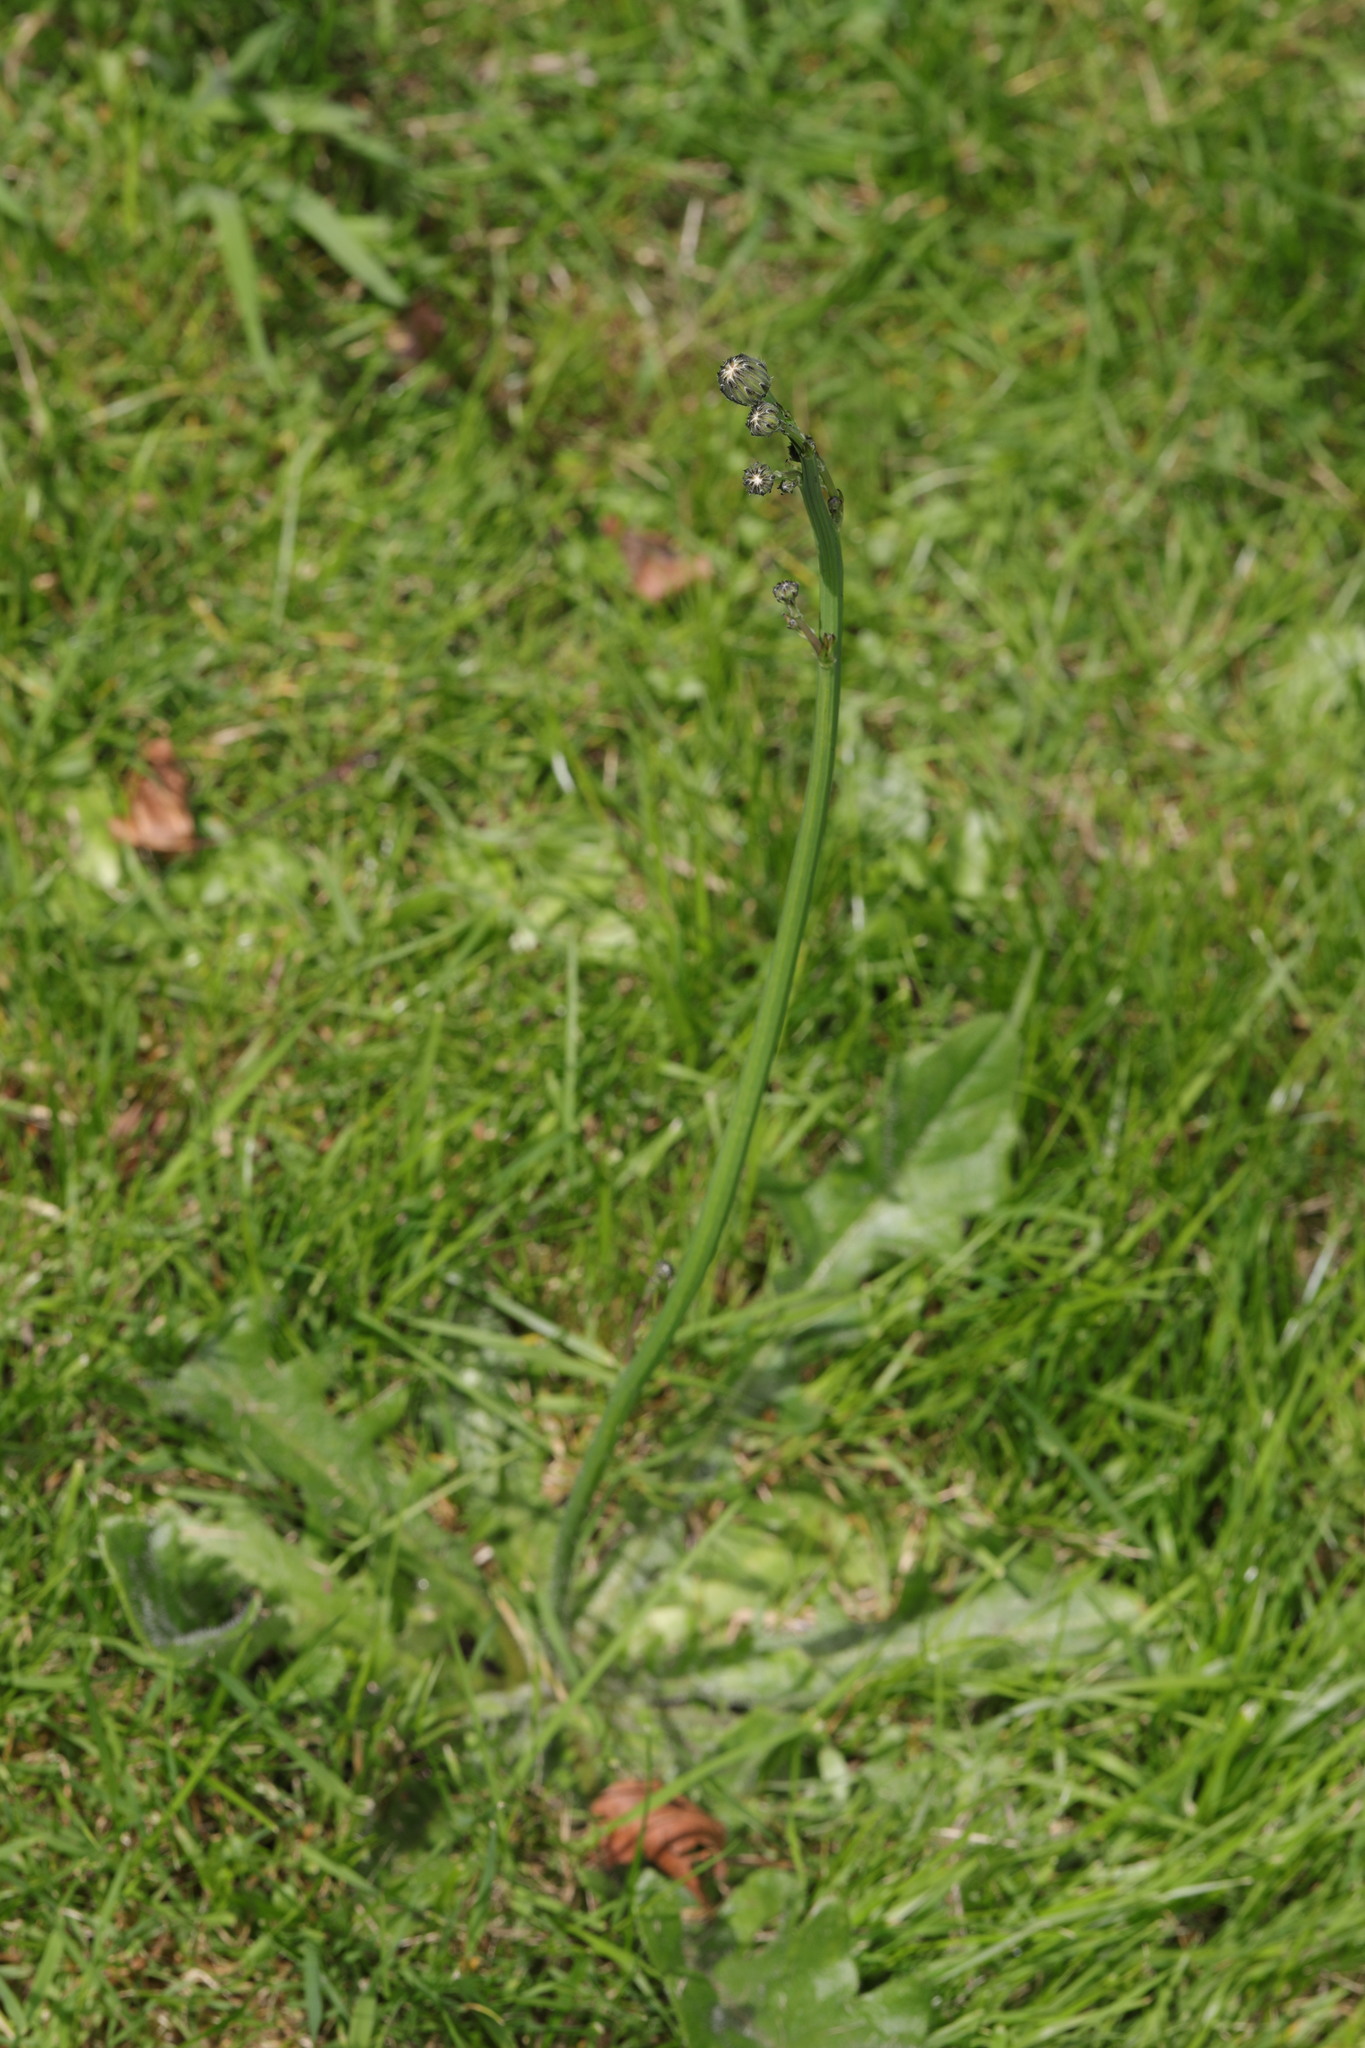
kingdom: Plantae
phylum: Tracheophyta
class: Magnoliopsida
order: Asterales
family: Asteraceae
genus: Hypochaeris
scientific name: Hypochaeris radicata
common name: Flatweed
